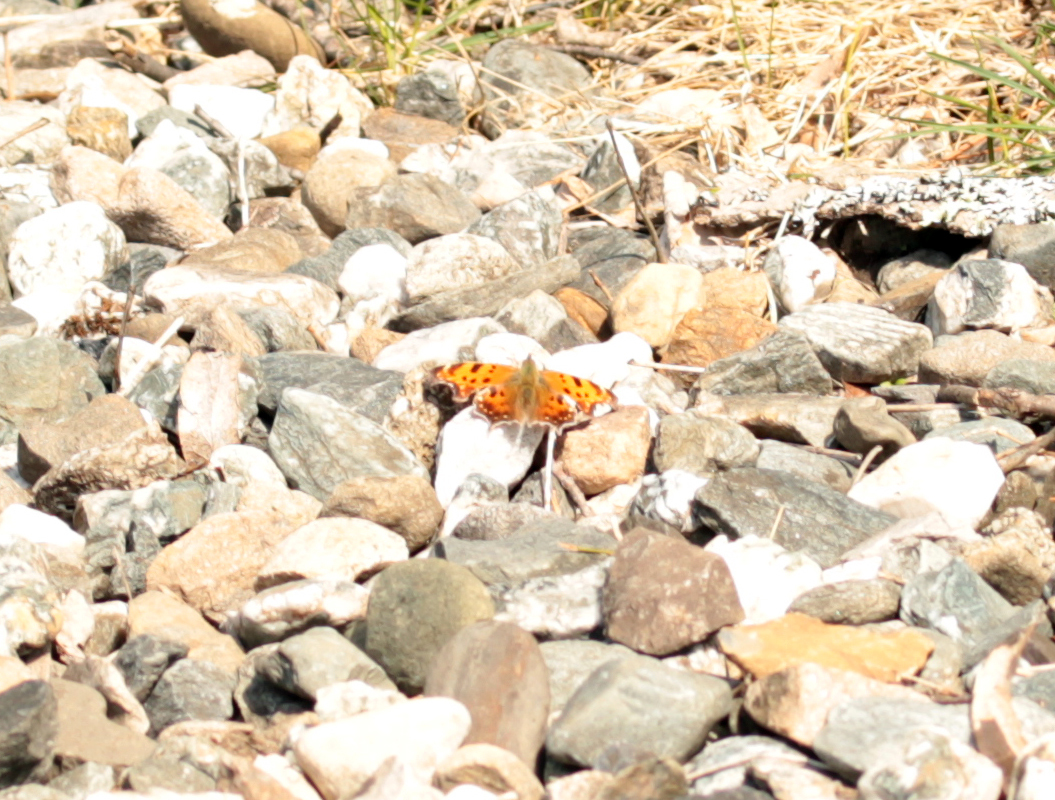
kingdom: Animalia
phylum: Arthropoda
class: Insecta
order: Lepidoptera
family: Nymphalidae
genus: Polygonia
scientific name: Polygonia comma
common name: Eastern comma
